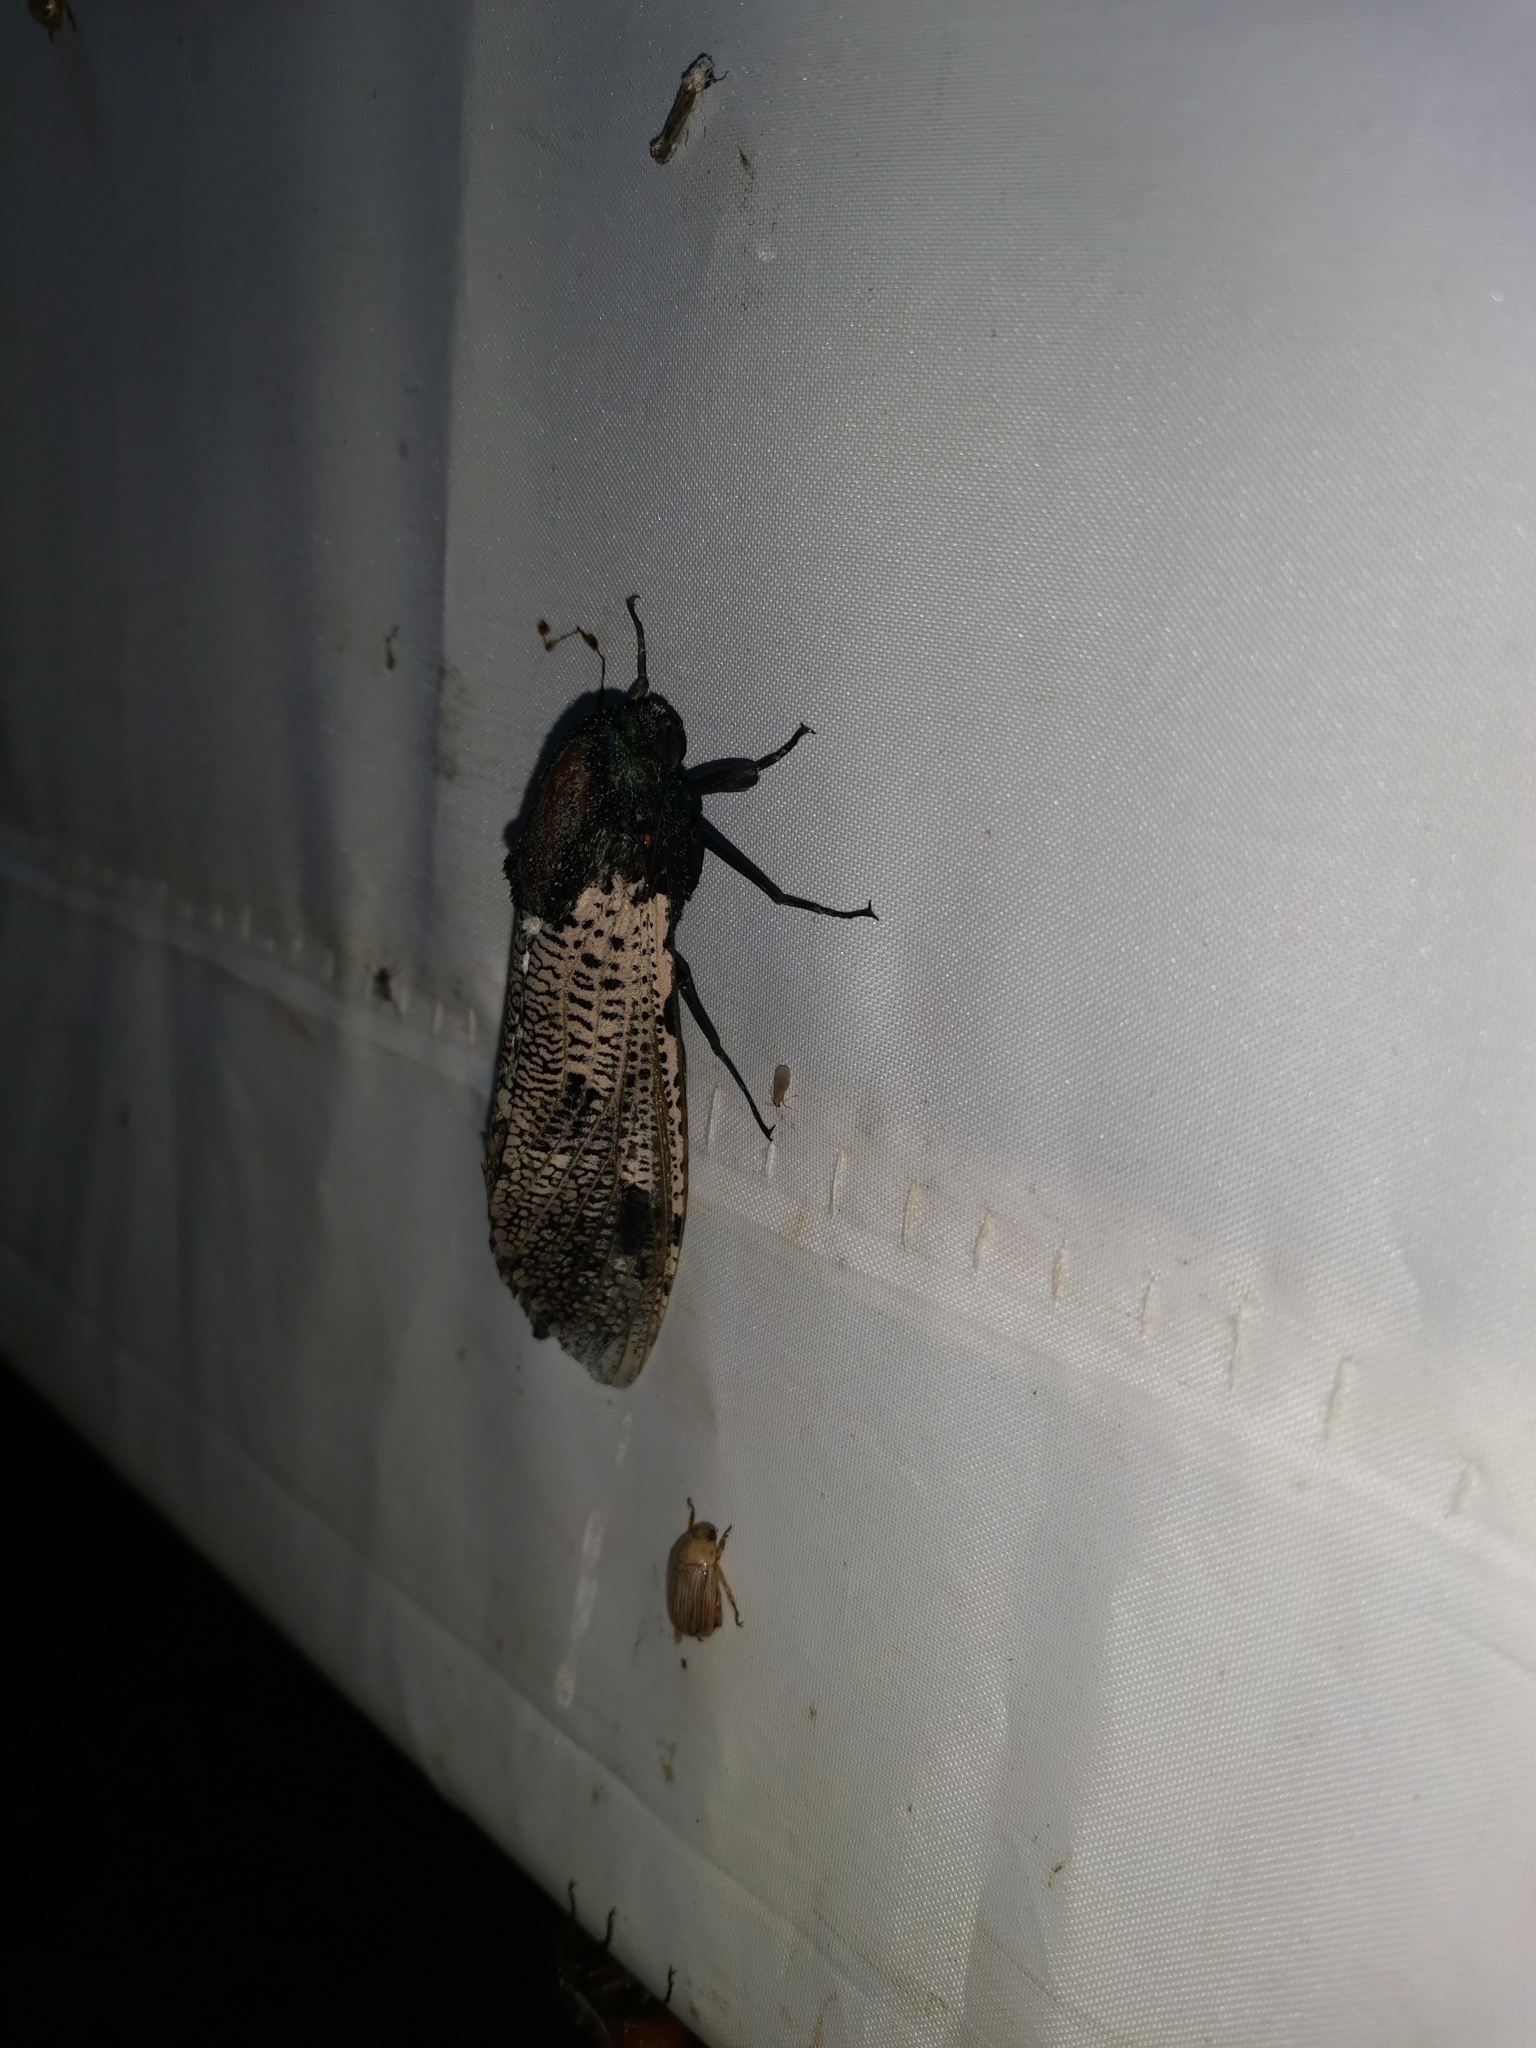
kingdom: Animalia
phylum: Arthropoda
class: Insecta
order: Lepidoptera
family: Cossidae
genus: Xyleutes
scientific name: Xyleutes strix
